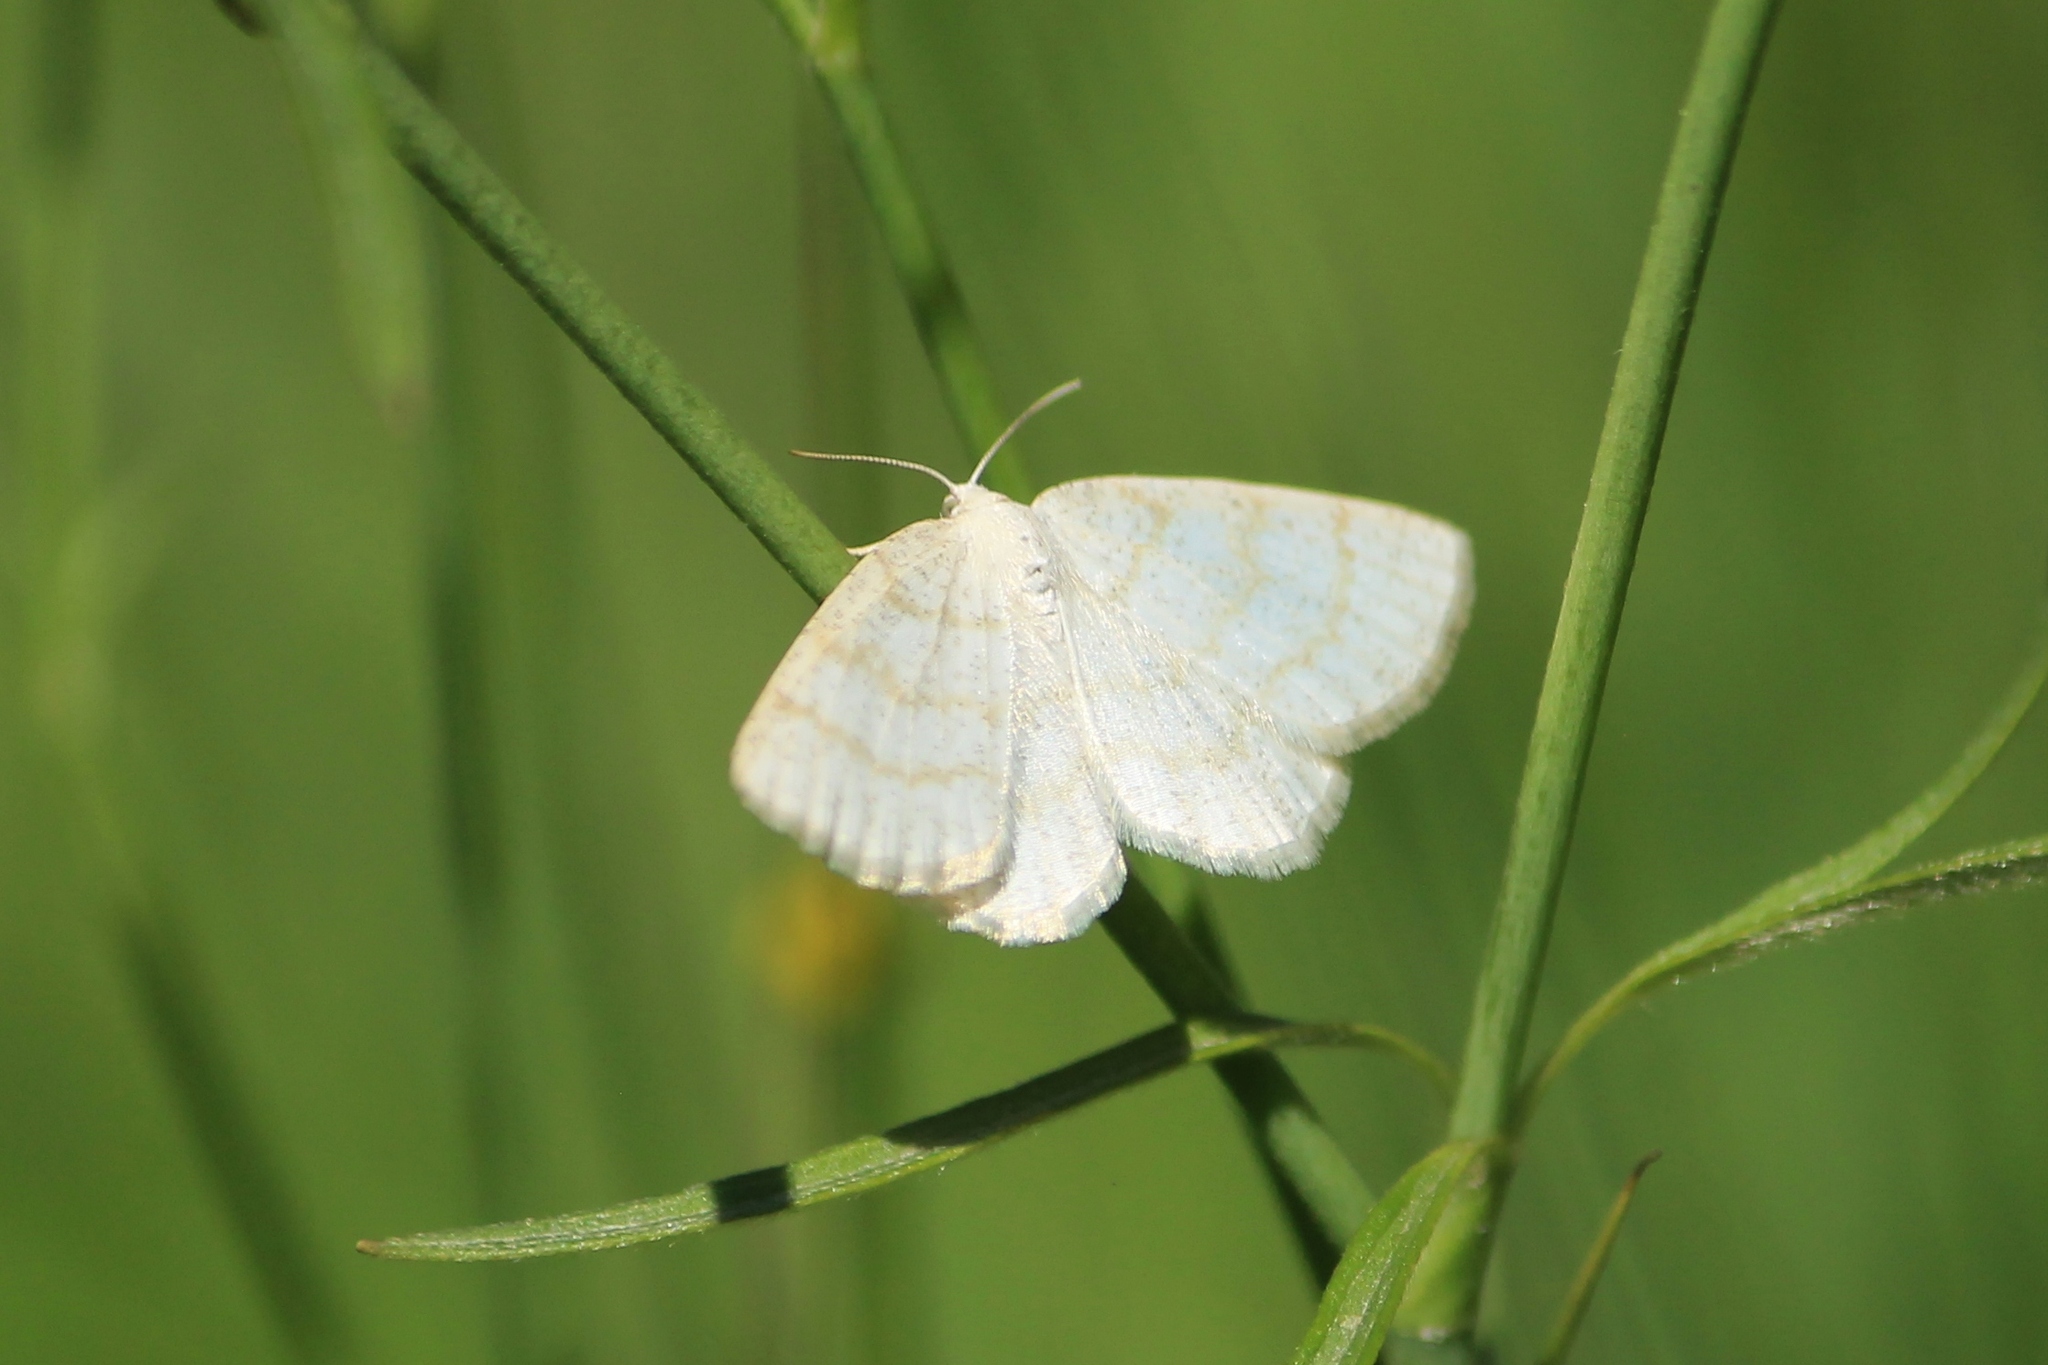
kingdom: Animalia
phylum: Arthropoda
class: Insecta
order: Lepidoptera
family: Geometridae
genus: Cabera
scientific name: Cabera exanthemata
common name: Common wave
